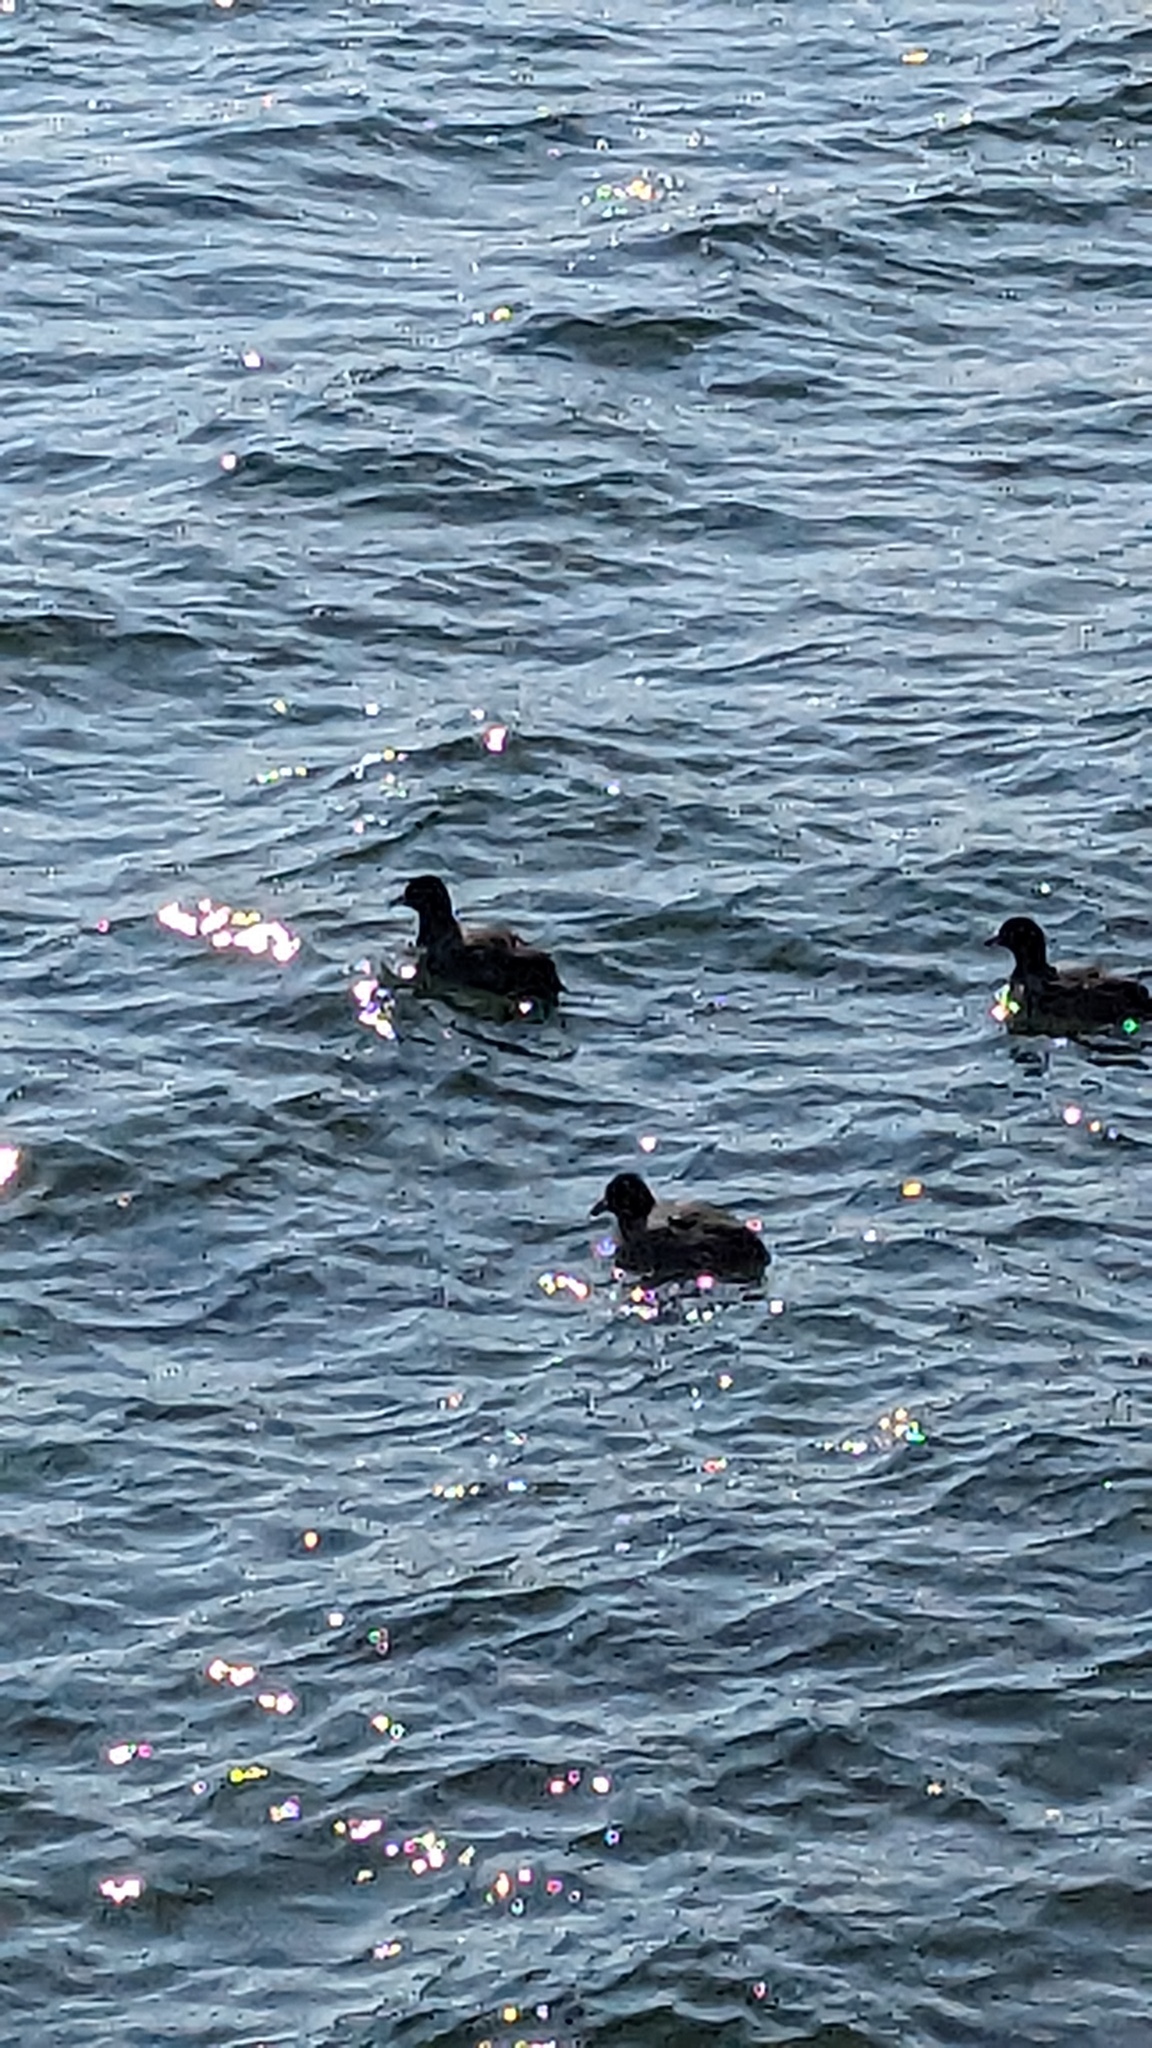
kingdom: Animalia
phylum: Chordata
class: Aves
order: Gruiformes
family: Rallidae
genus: Fulica
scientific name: Fulica americana
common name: American coot
